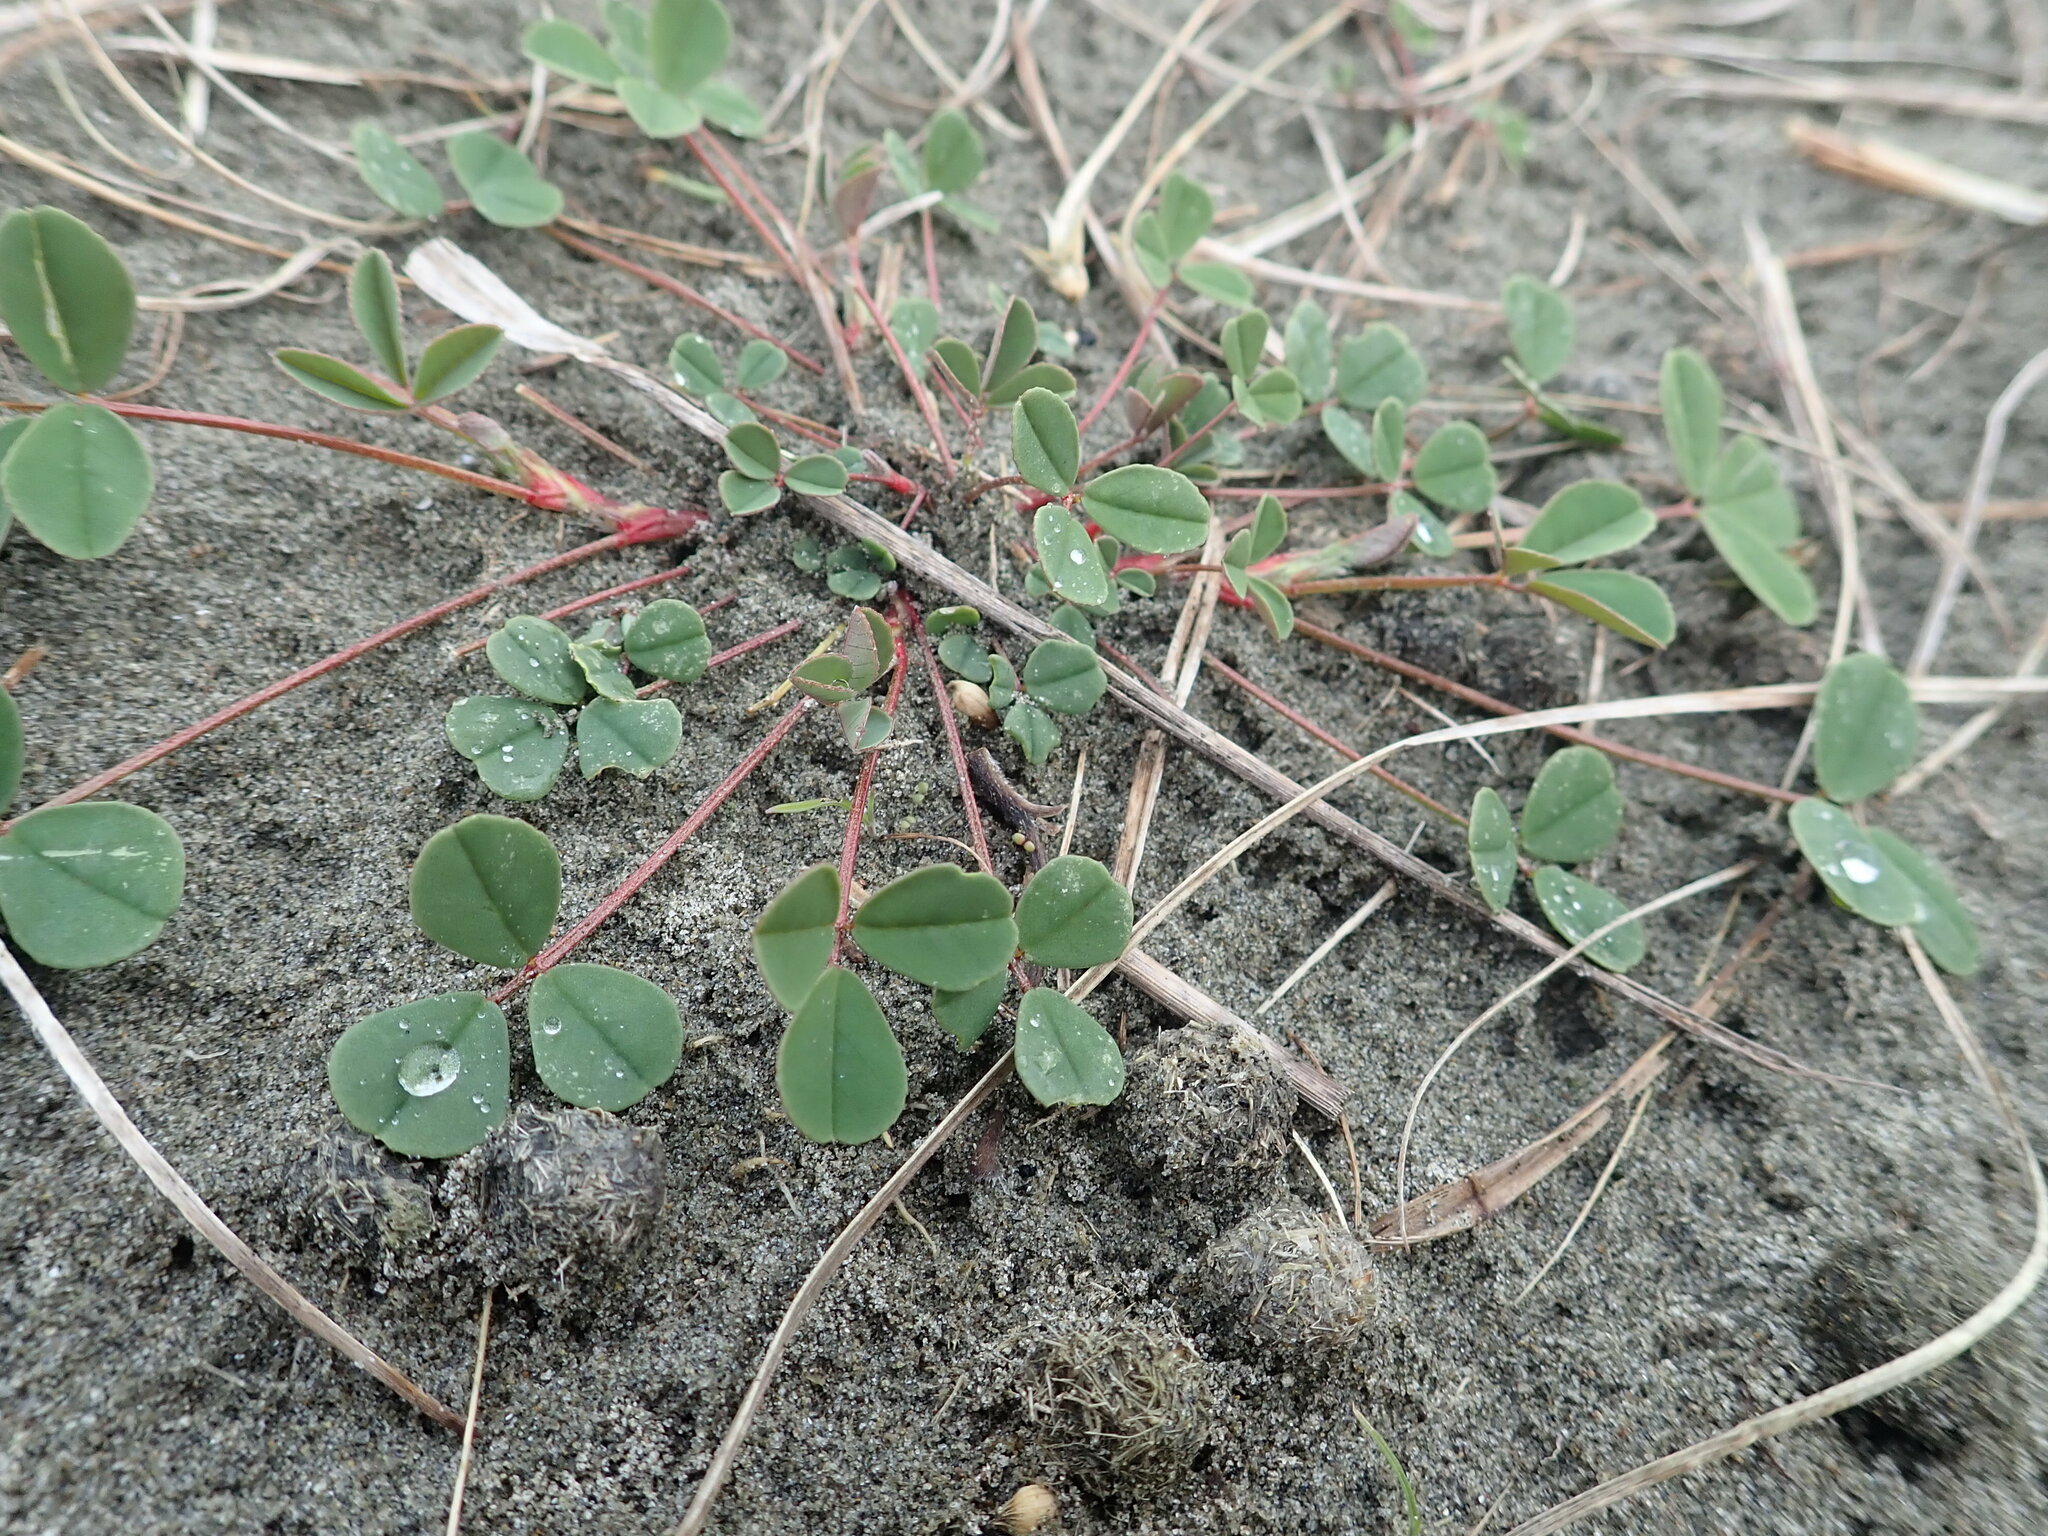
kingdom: Plantae
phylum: Tracheophyta
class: Magnoliopsida
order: Fabales
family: Fabaceae
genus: Melilotus
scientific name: Melilotus indicus
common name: Small melilot
